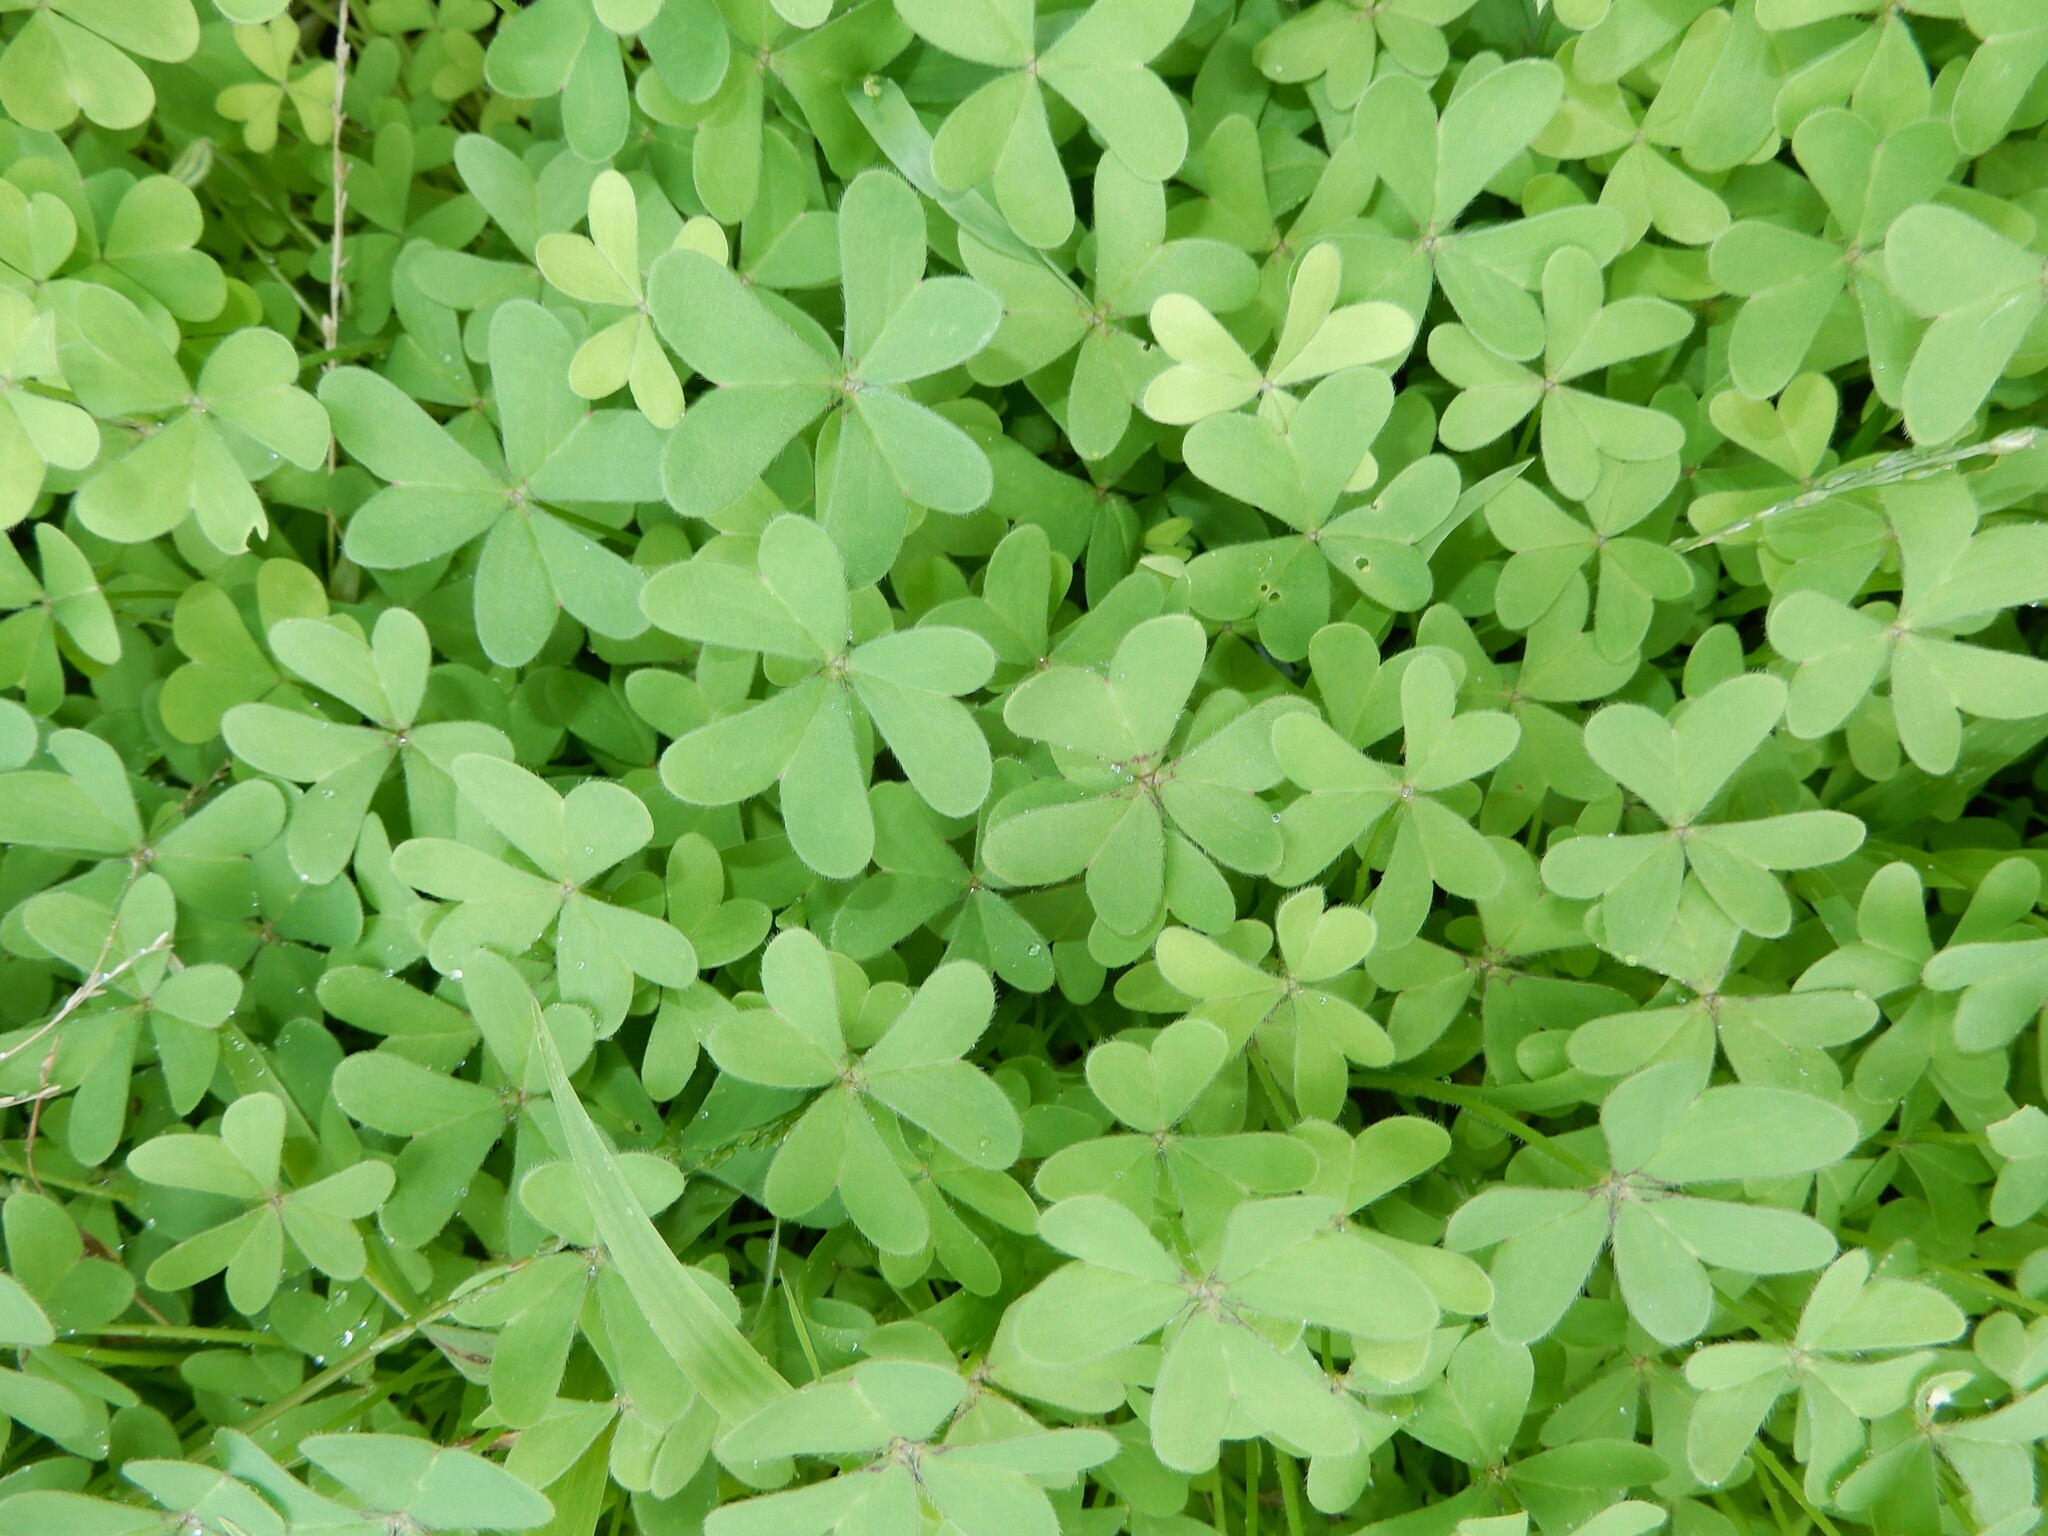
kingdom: Plantae
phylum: Tracheophyta
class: Magnoliopsida
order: Oxalidales
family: Oxalidaceae
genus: Oxalis
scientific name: Oxalis incarnata
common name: Pale pink-sorrel
